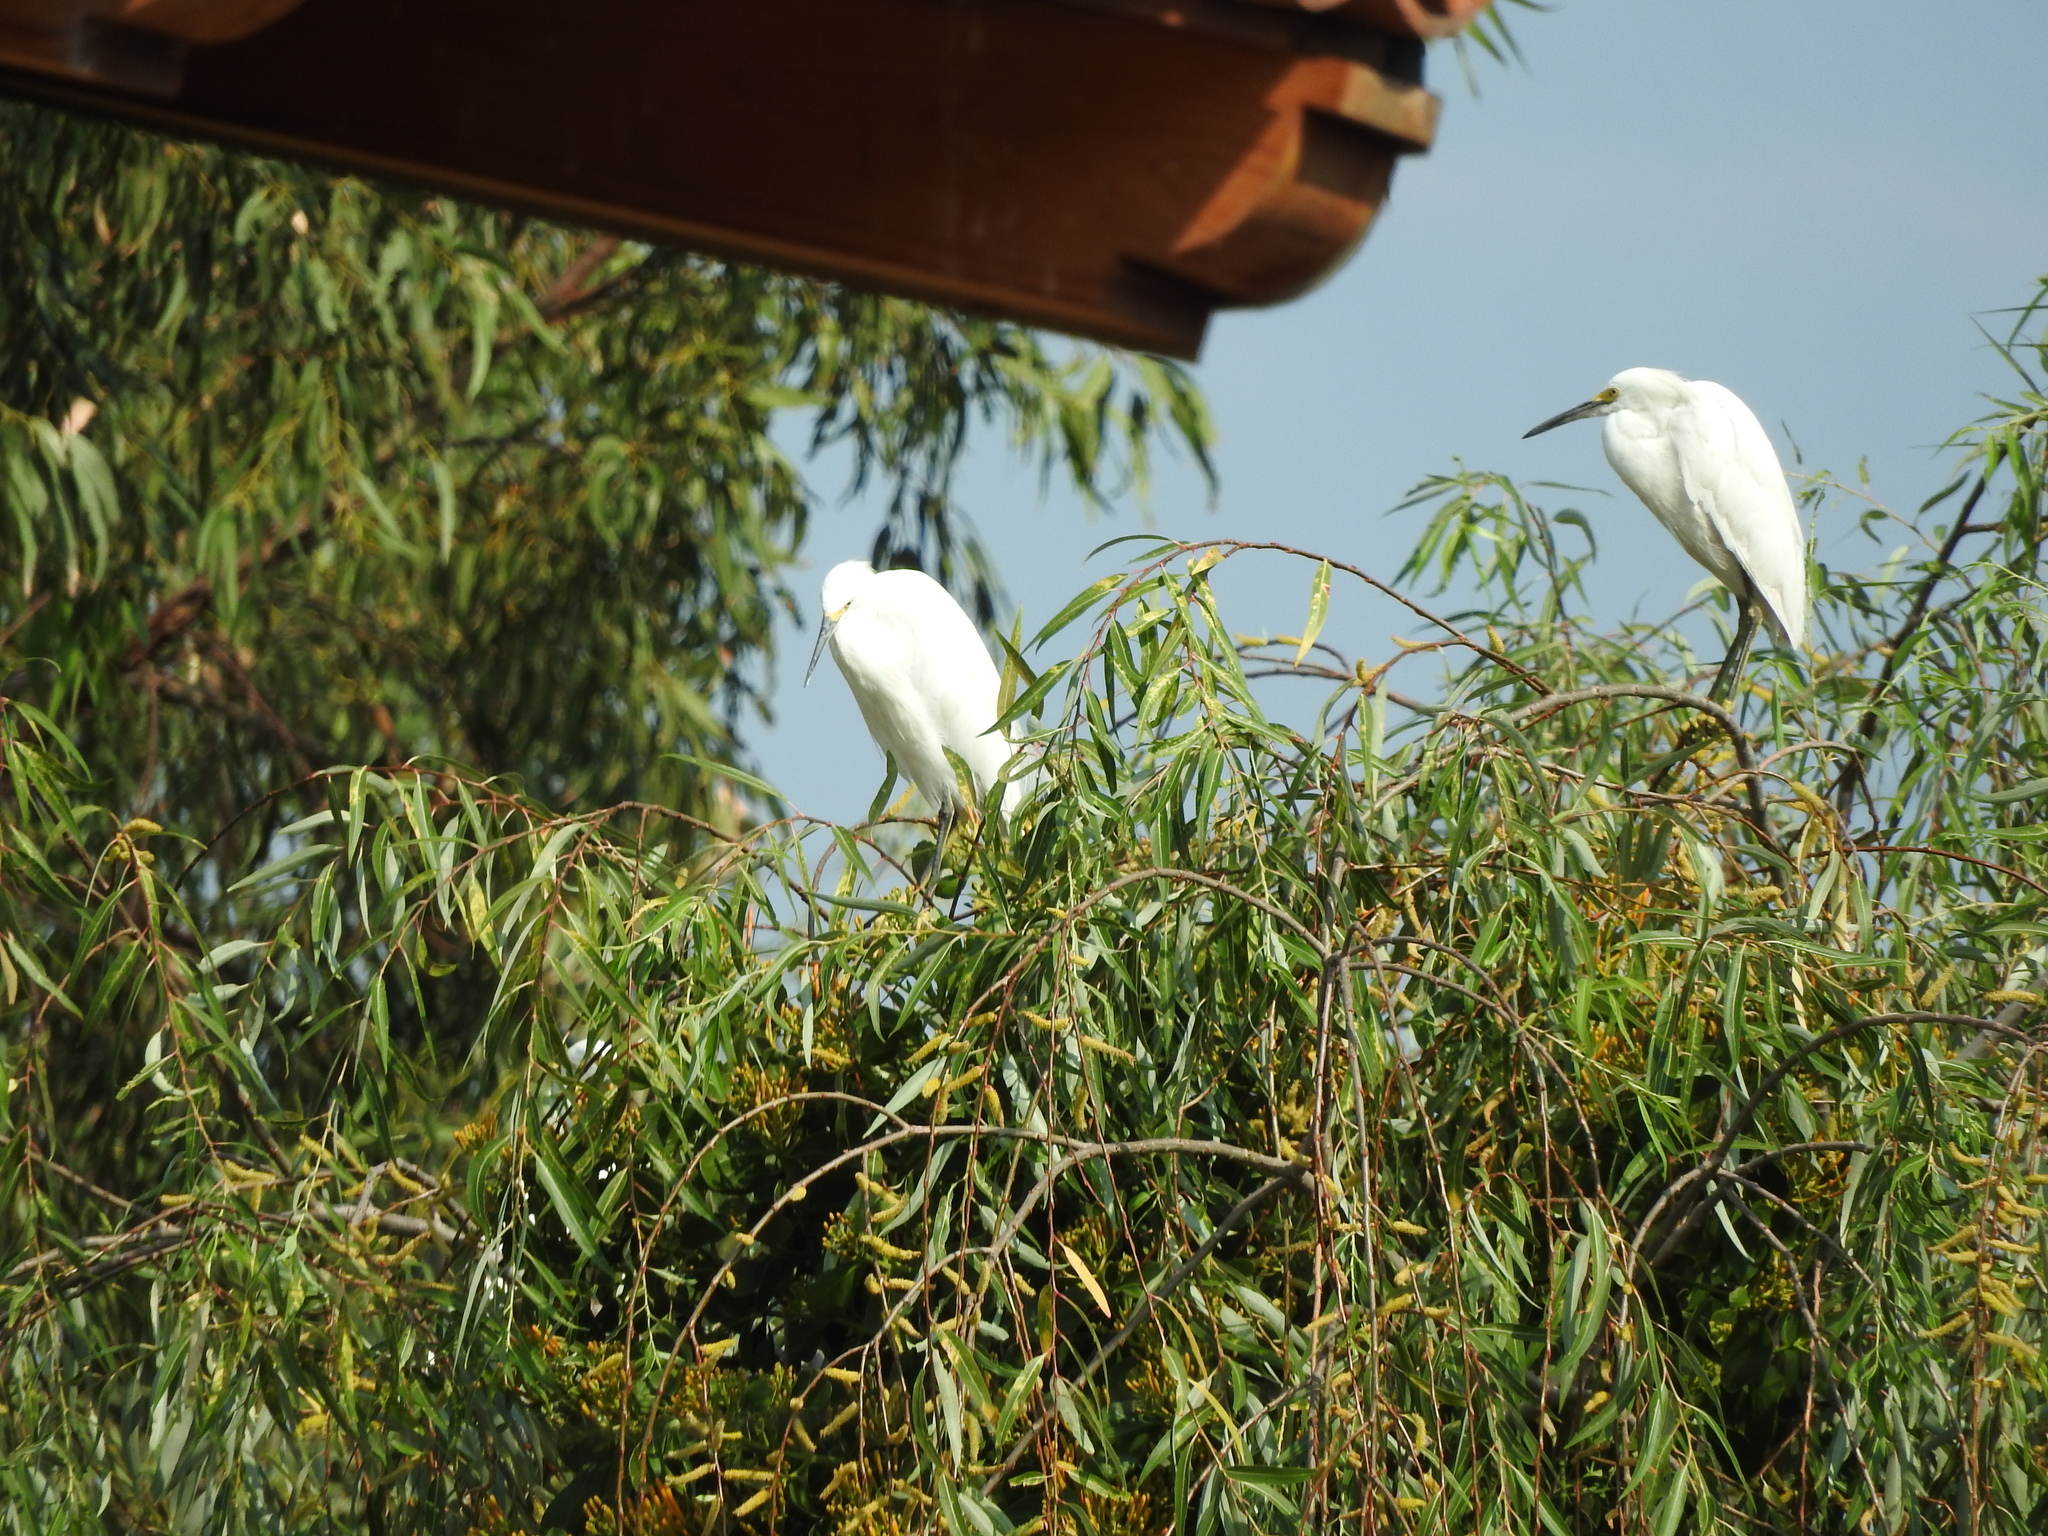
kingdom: Animalia
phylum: Chordata
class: Aves
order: Pelecaniformes
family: Ardeidae
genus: Egretta
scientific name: Egretta thula
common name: Snowy egret
